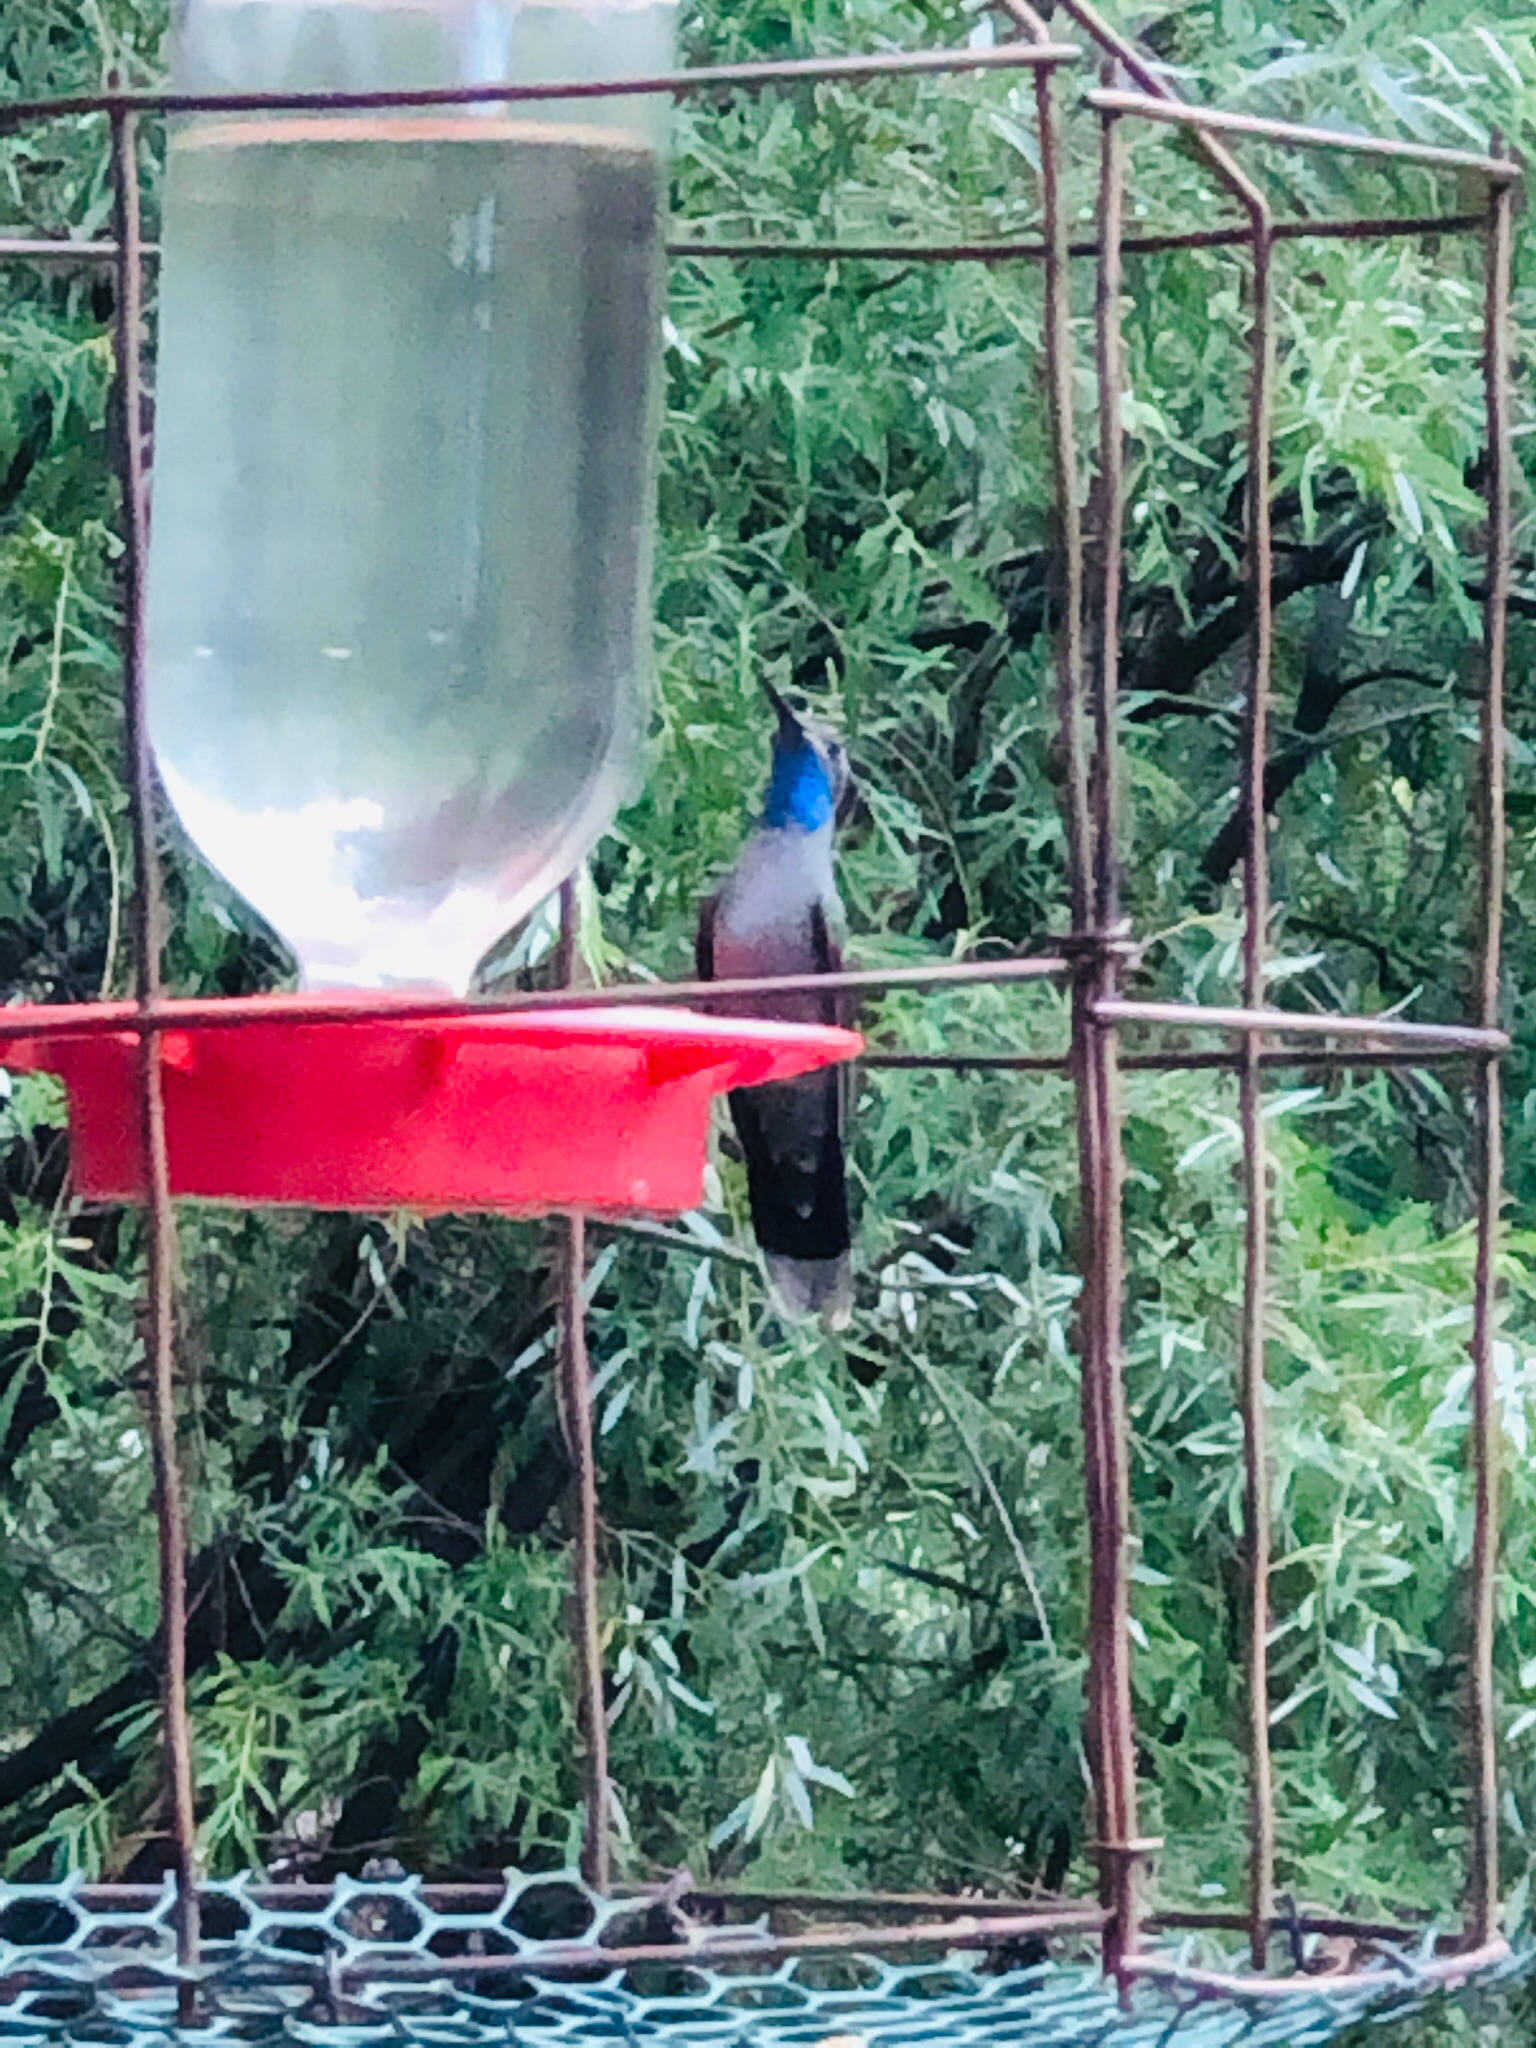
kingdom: Animalia
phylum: Chordata
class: Aves
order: Apodiformes
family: Trochilidae
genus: Lampornis
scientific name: Lampornis clemenciae
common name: Blue-throated mountaingem
